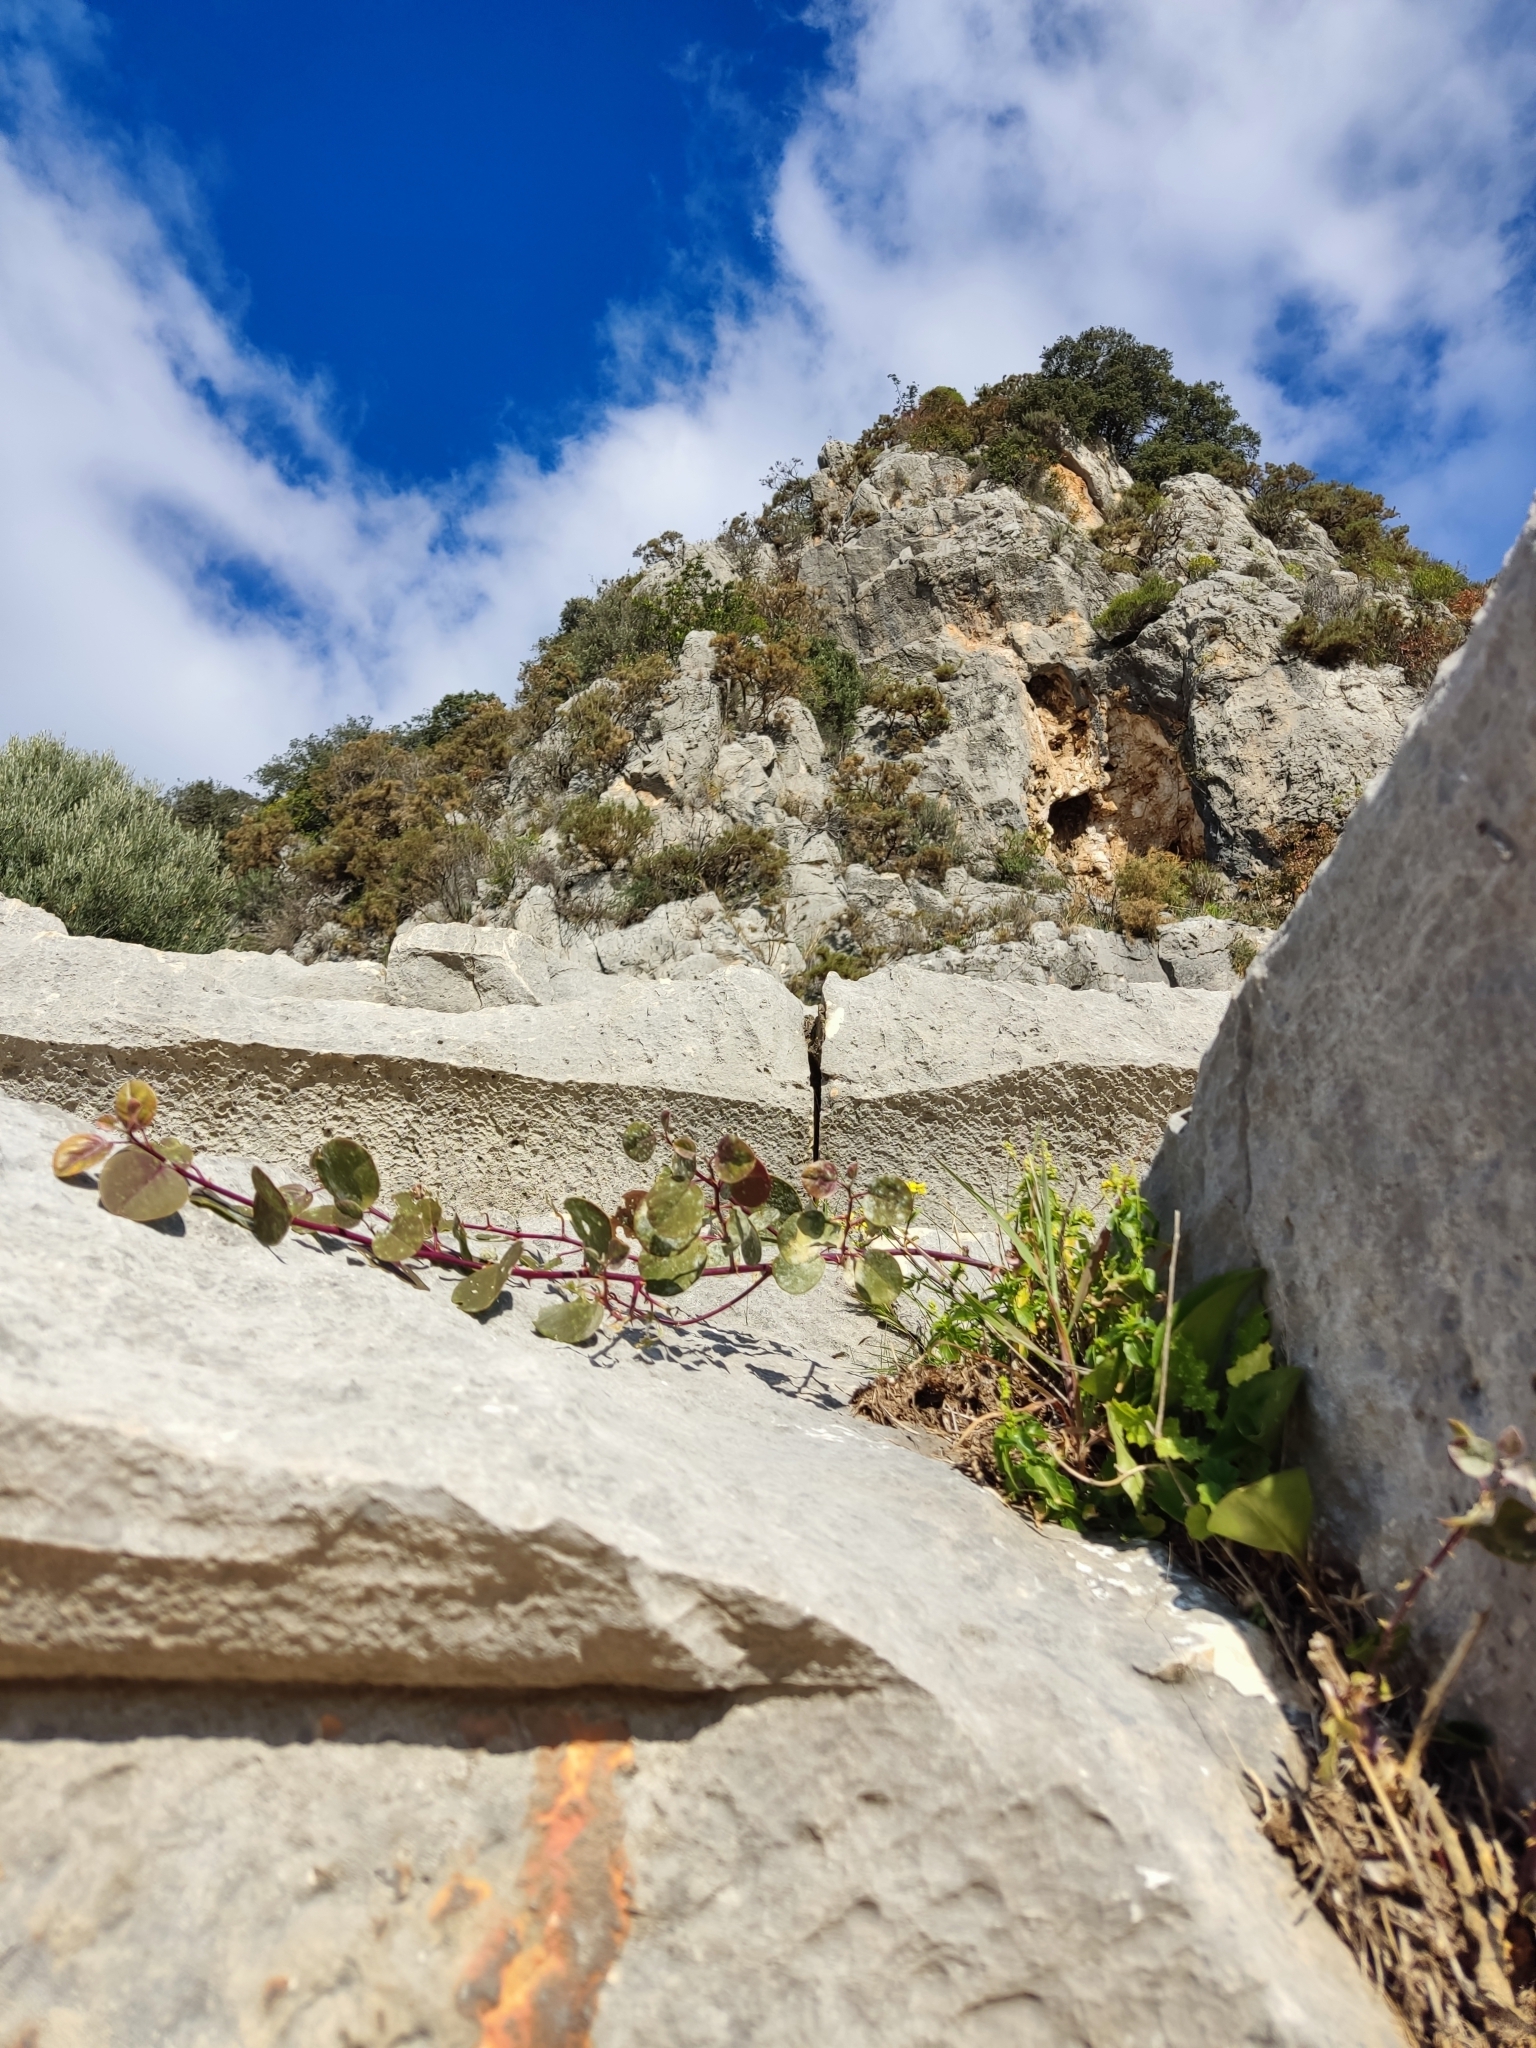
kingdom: Plantae
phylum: Tracheophyta
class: Magnoliopsida
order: Lamiales
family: Plantaginaceae
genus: Cymbalaria
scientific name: Cymbalaria muralis
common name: Ivy-leaved toadflax
